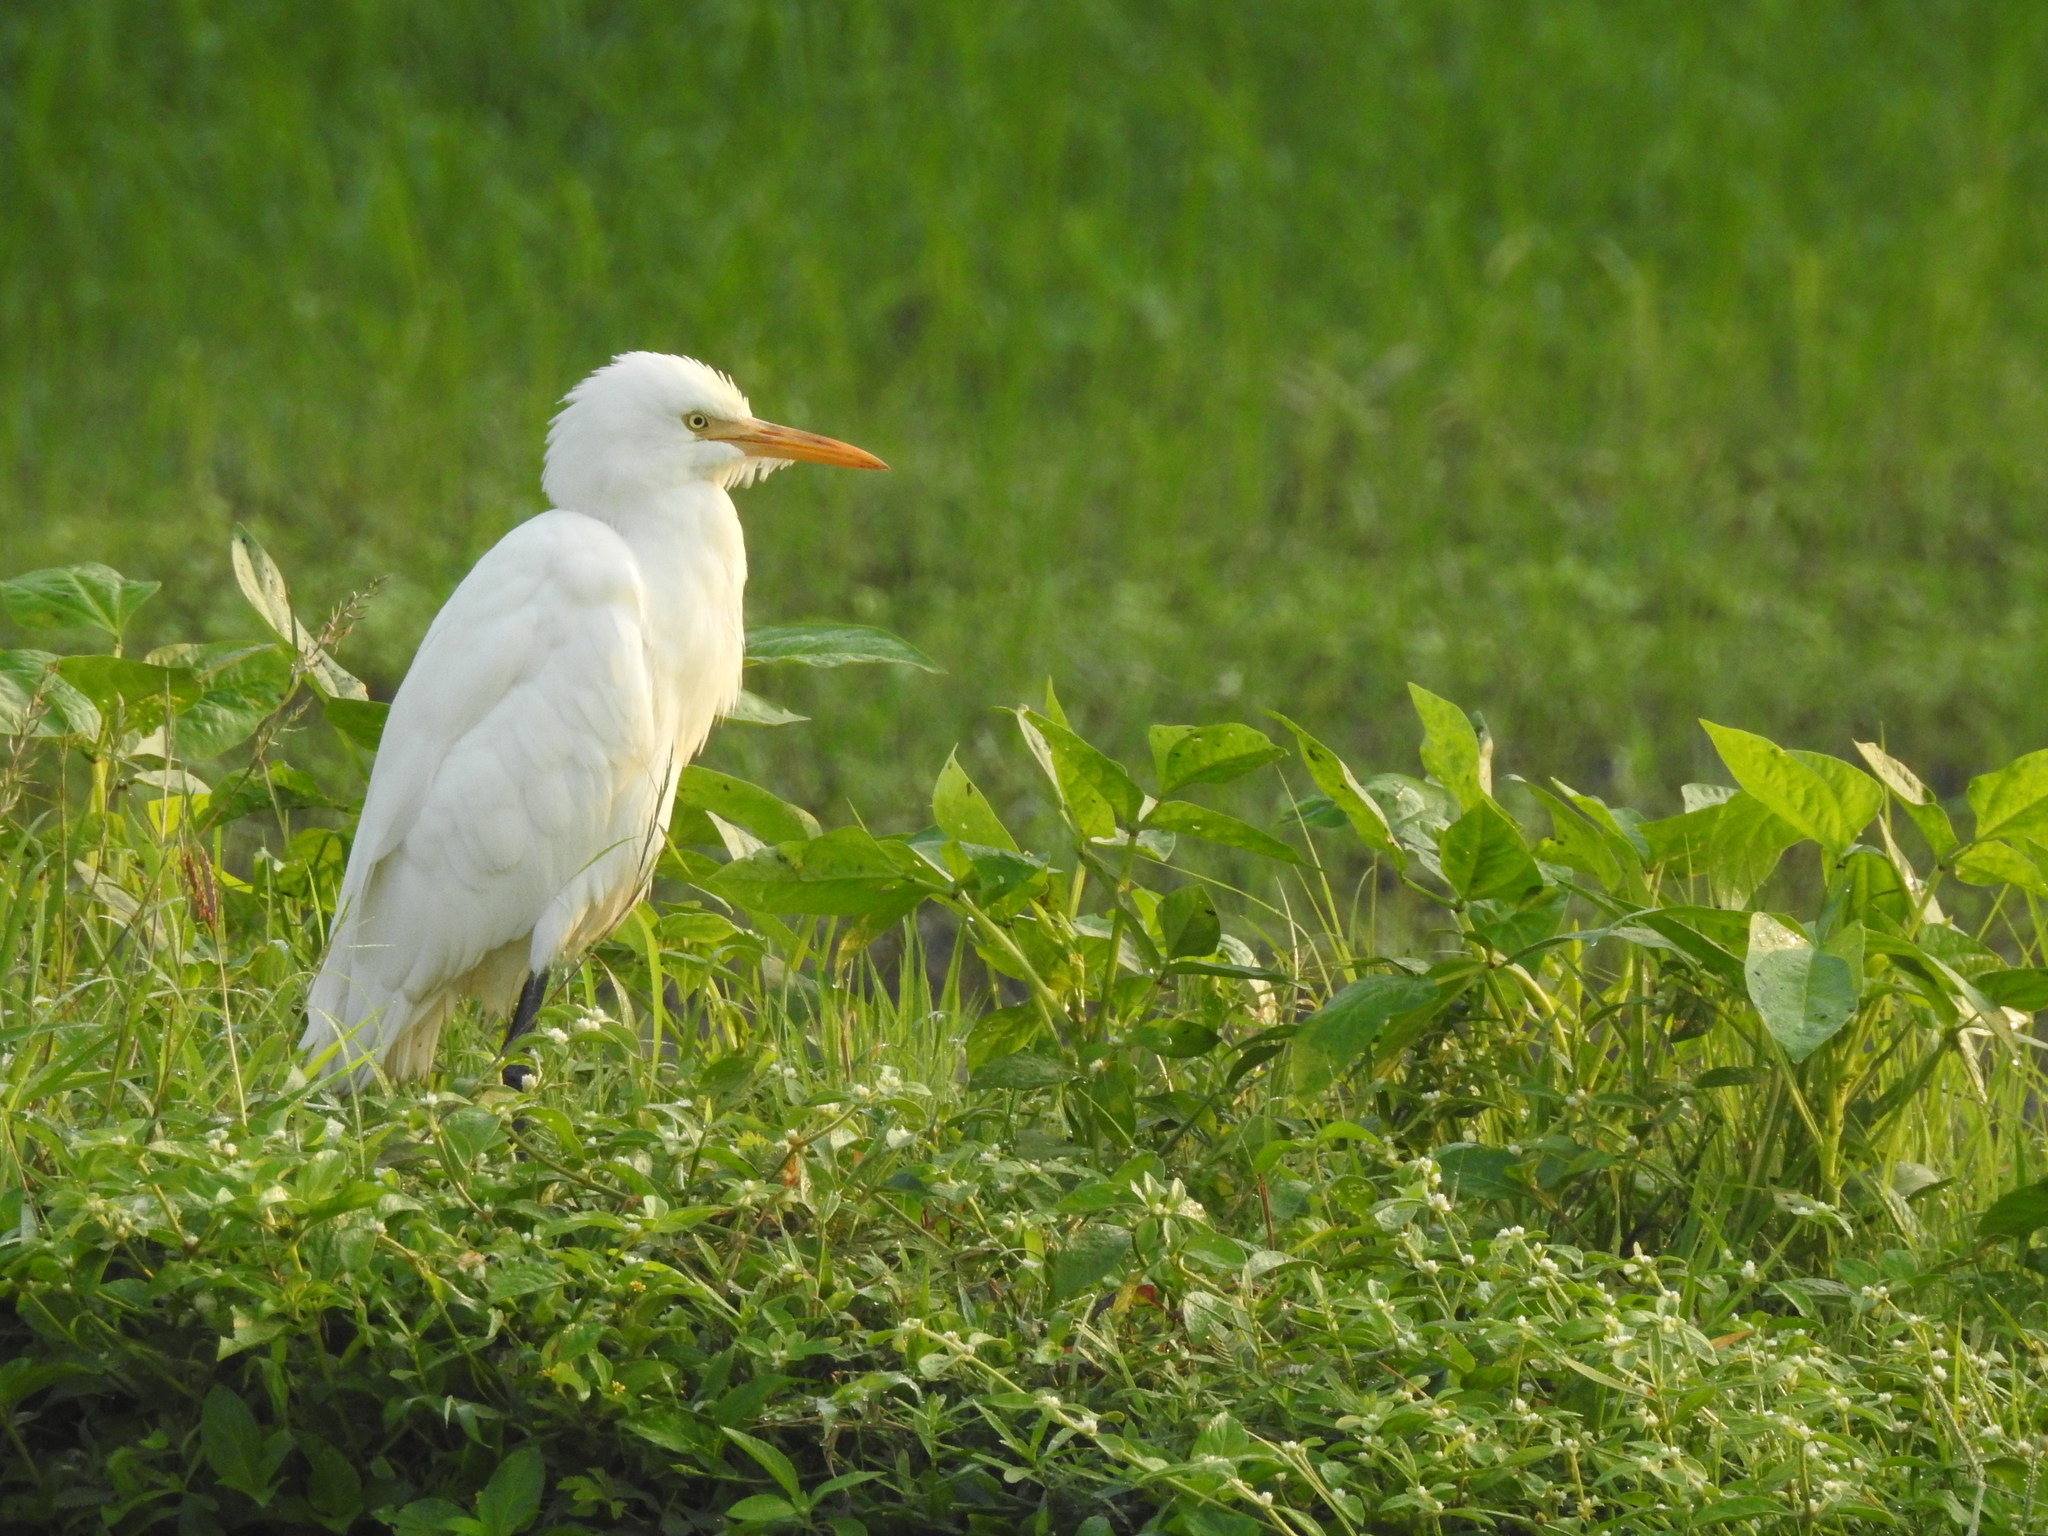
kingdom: Animalia
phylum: Chordata
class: Aves
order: Pelecaniformes
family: Ardeidae
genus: Bubulcus
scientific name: Bubulcus coromandus
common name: Eastern cattle egret
